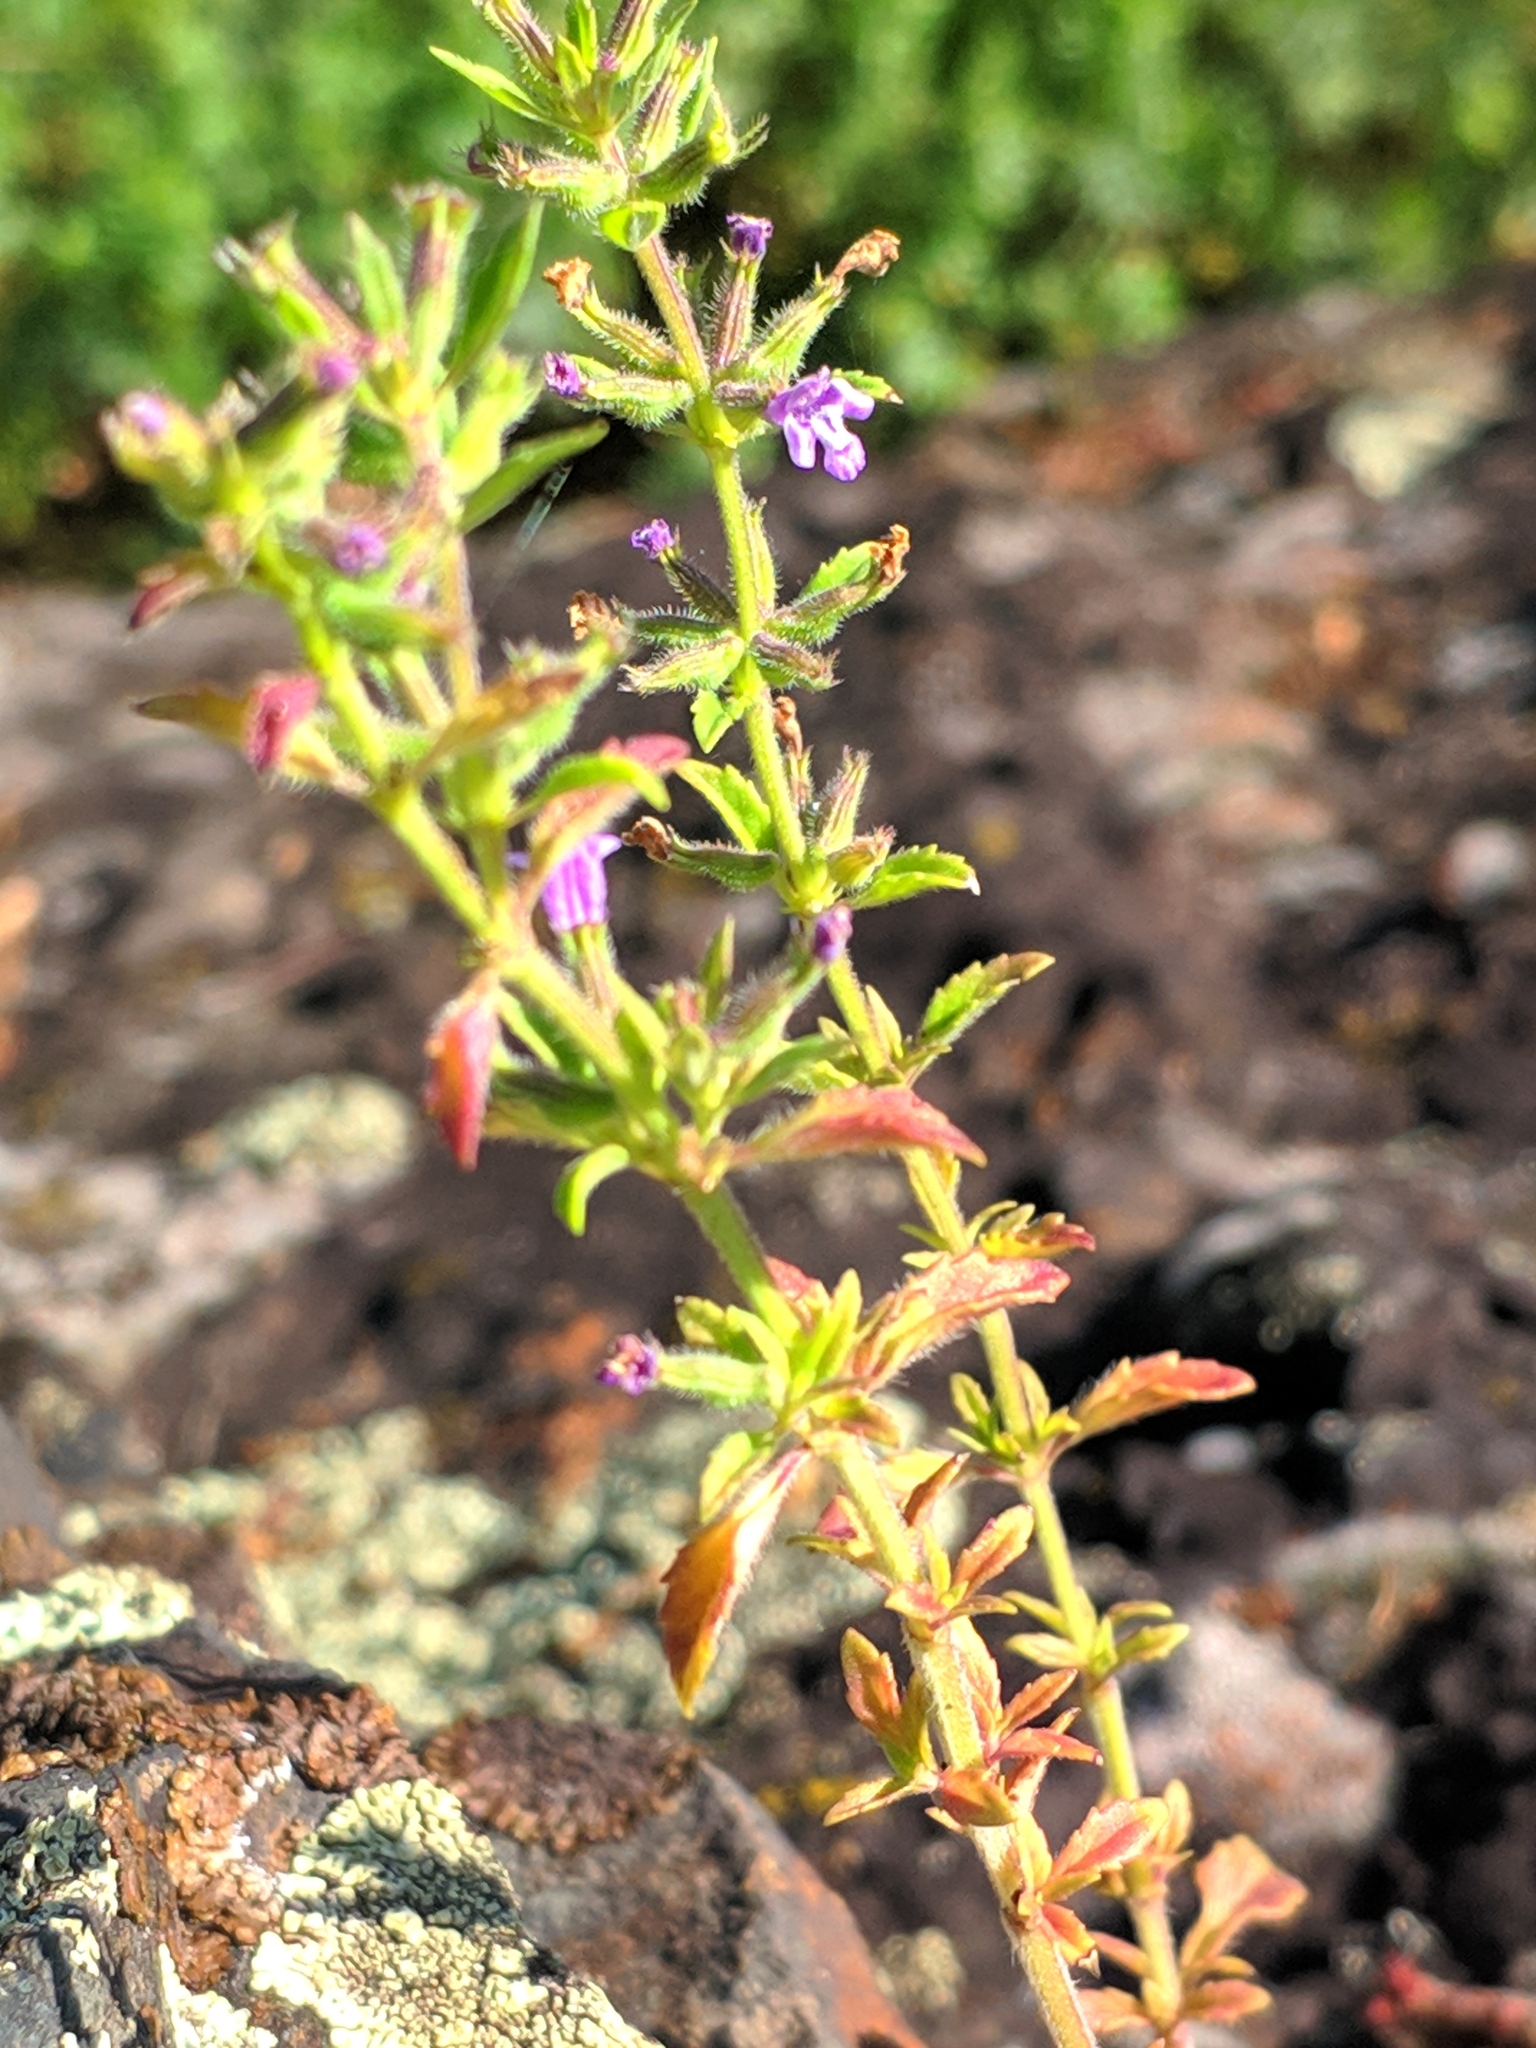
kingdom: Plantae
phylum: Tracheophyta
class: Magnoliopsida
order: Lamiales
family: Lamiaceae
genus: Clinopodium
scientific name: Clinopodium acinos
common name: Basil thyme
